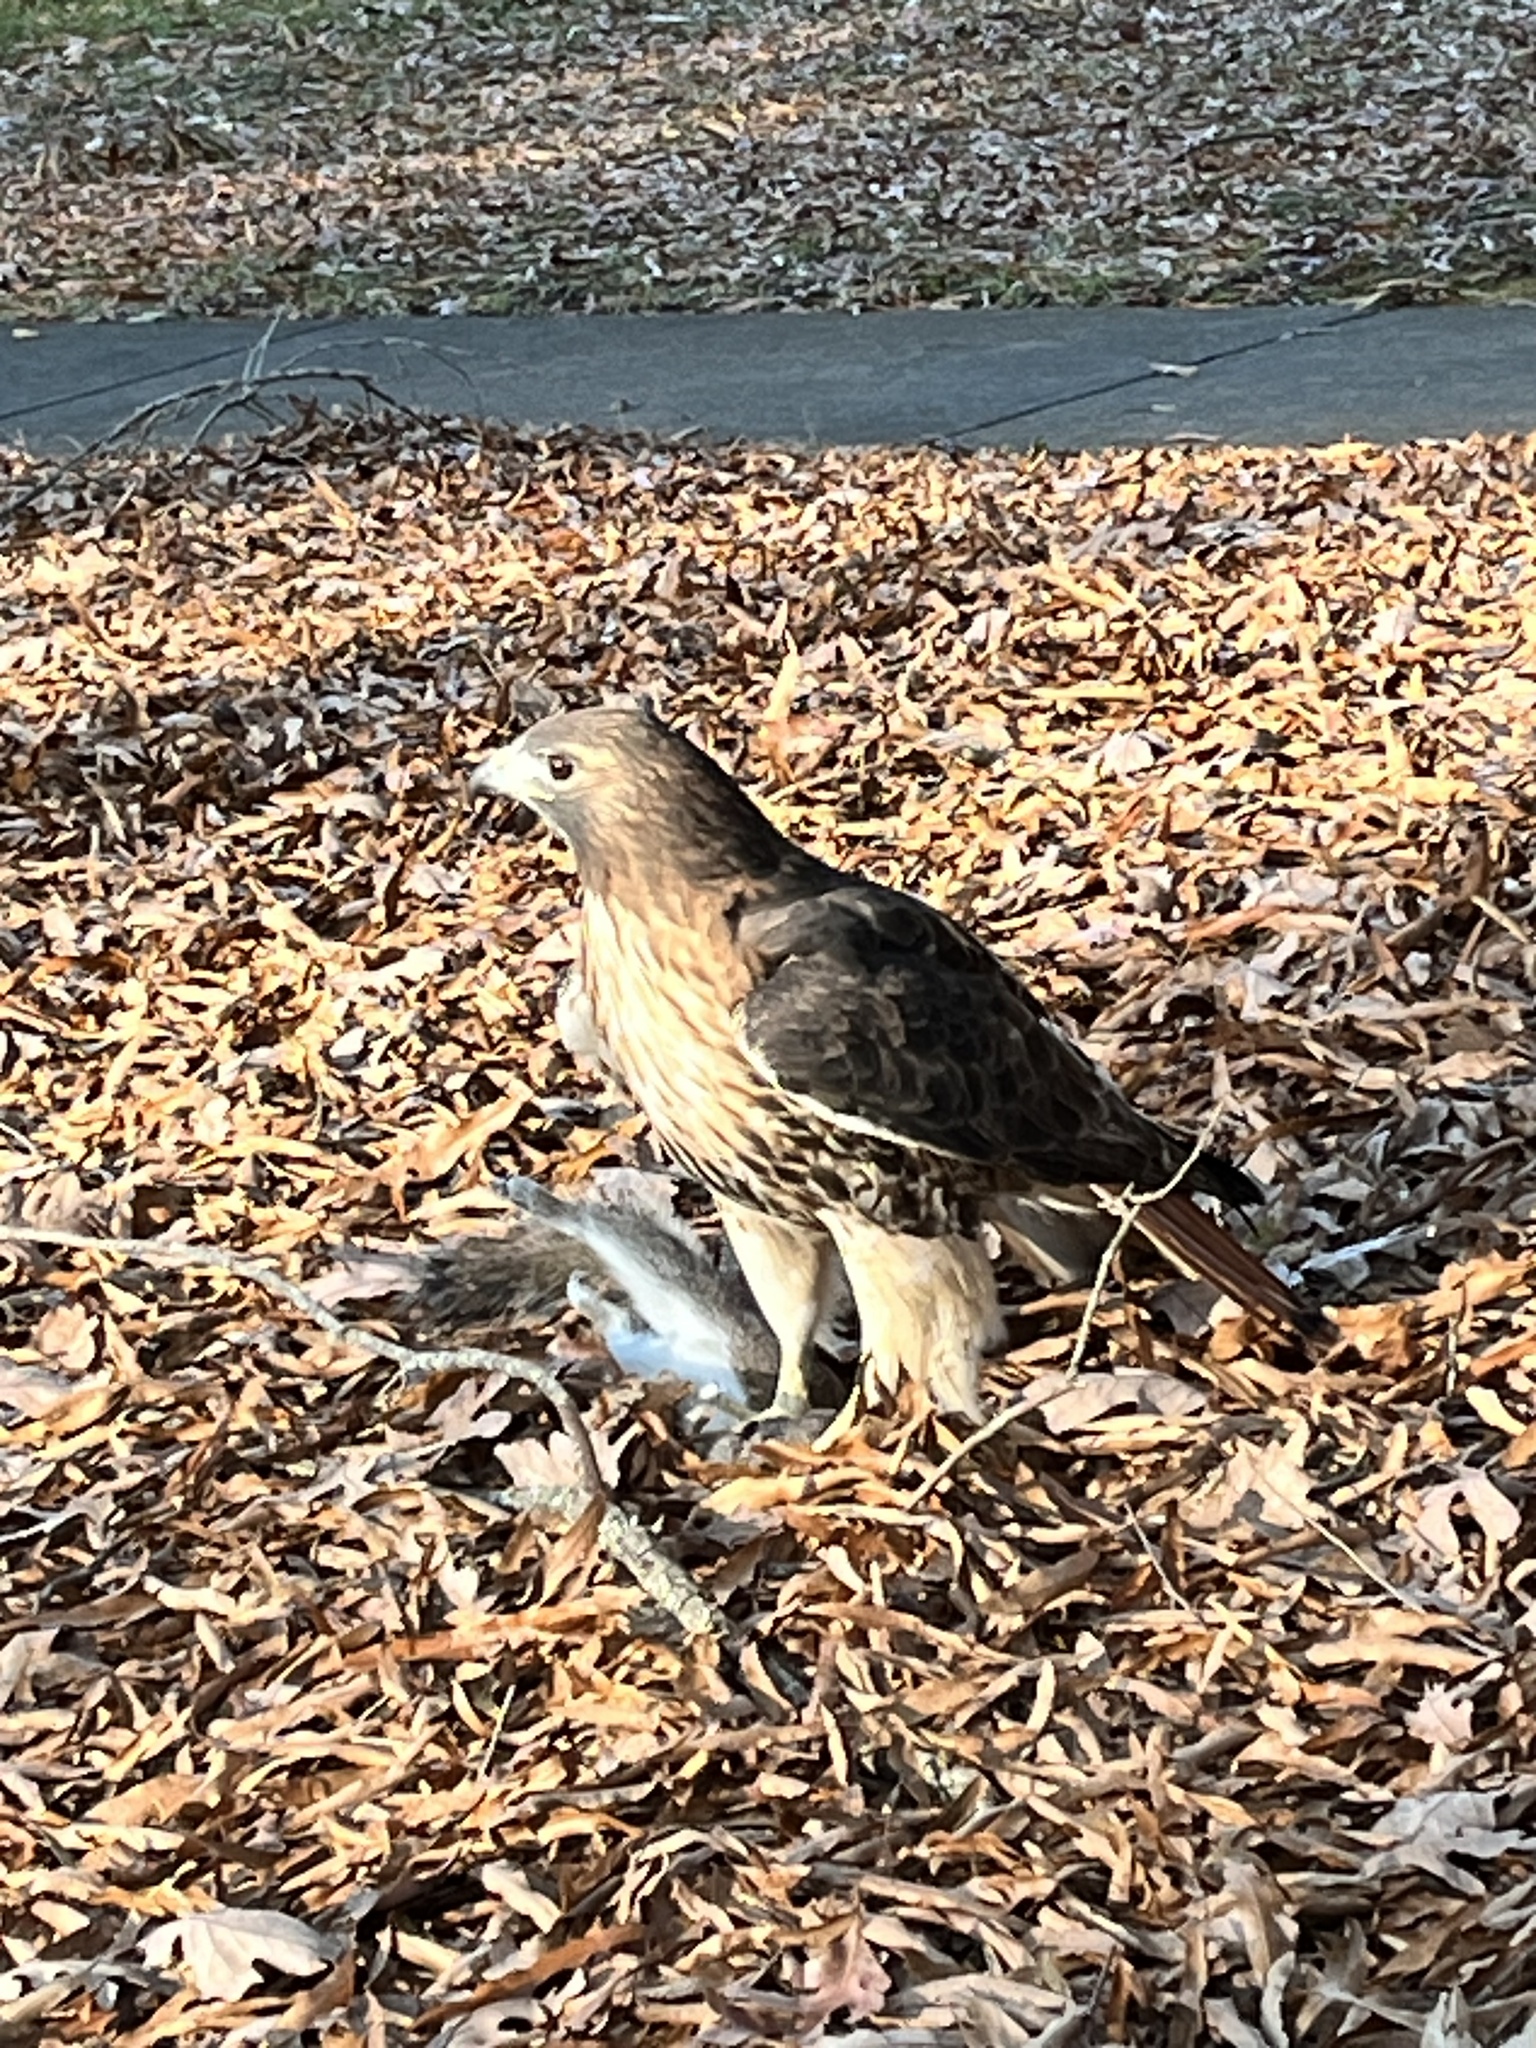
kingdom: Animalia
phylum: Chordata
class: Aves
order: Accipitriformes
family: Accipitridae
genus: Buteo
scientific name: Buteo jamaicensis
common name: Red-tailed hawk
